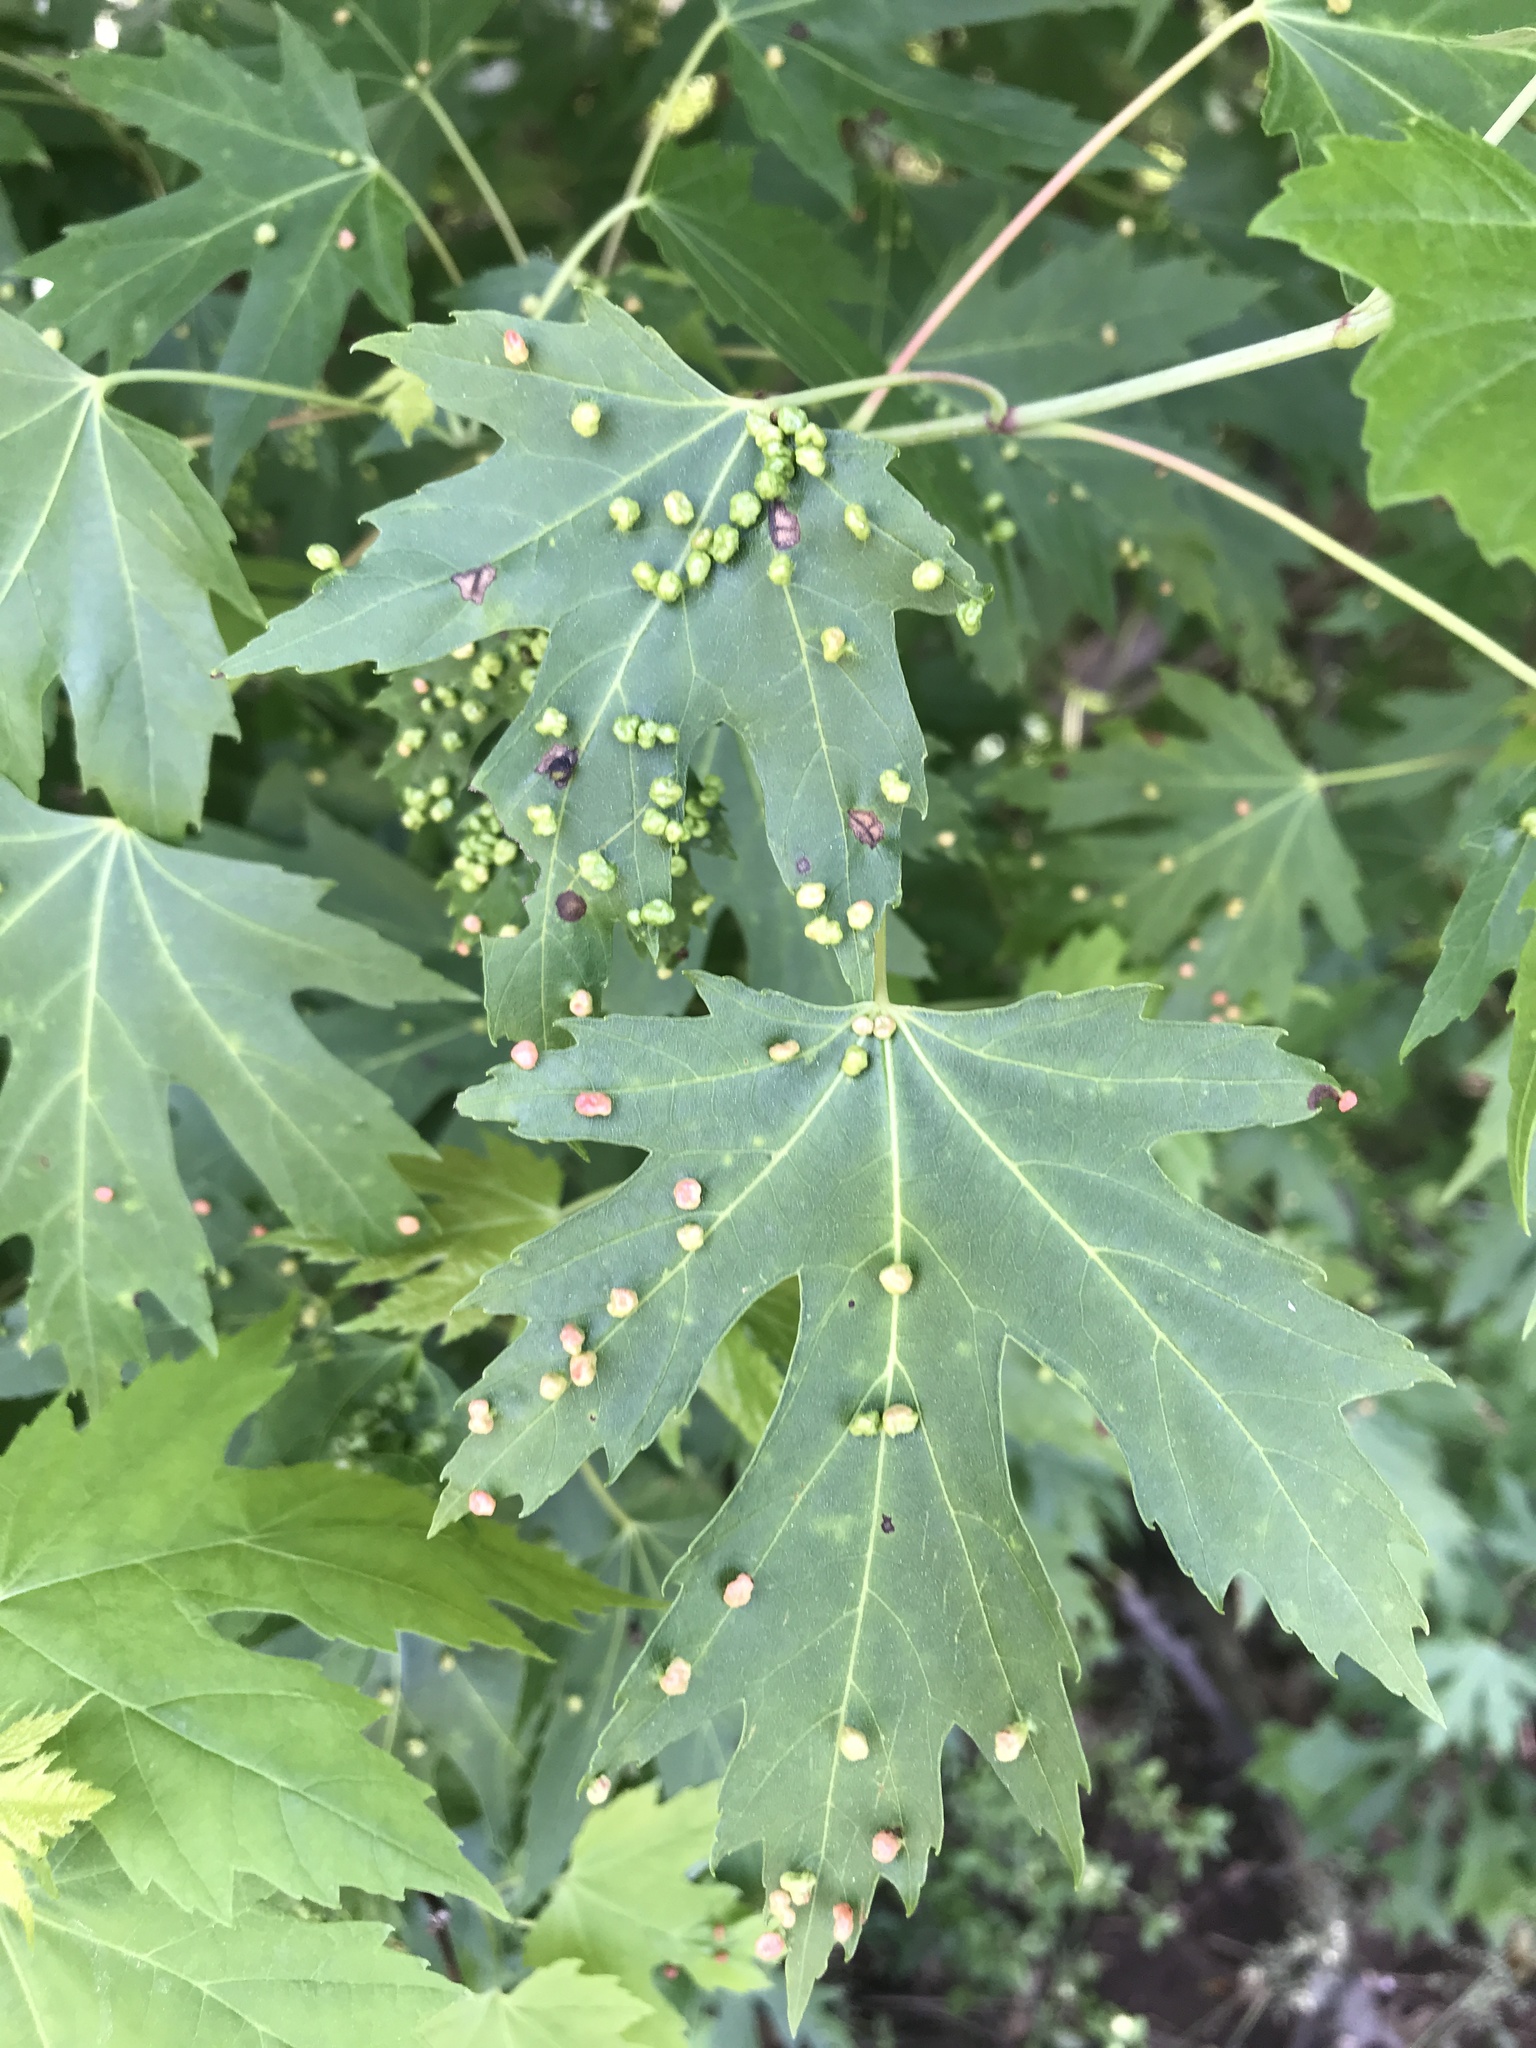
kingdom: Animalia
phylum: Arthropoda
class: Arachnida
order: Trombidiformes
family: Eriophyidae
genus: Vasates
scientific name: Vasates quadripedes
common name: Maple bladder gall mite
